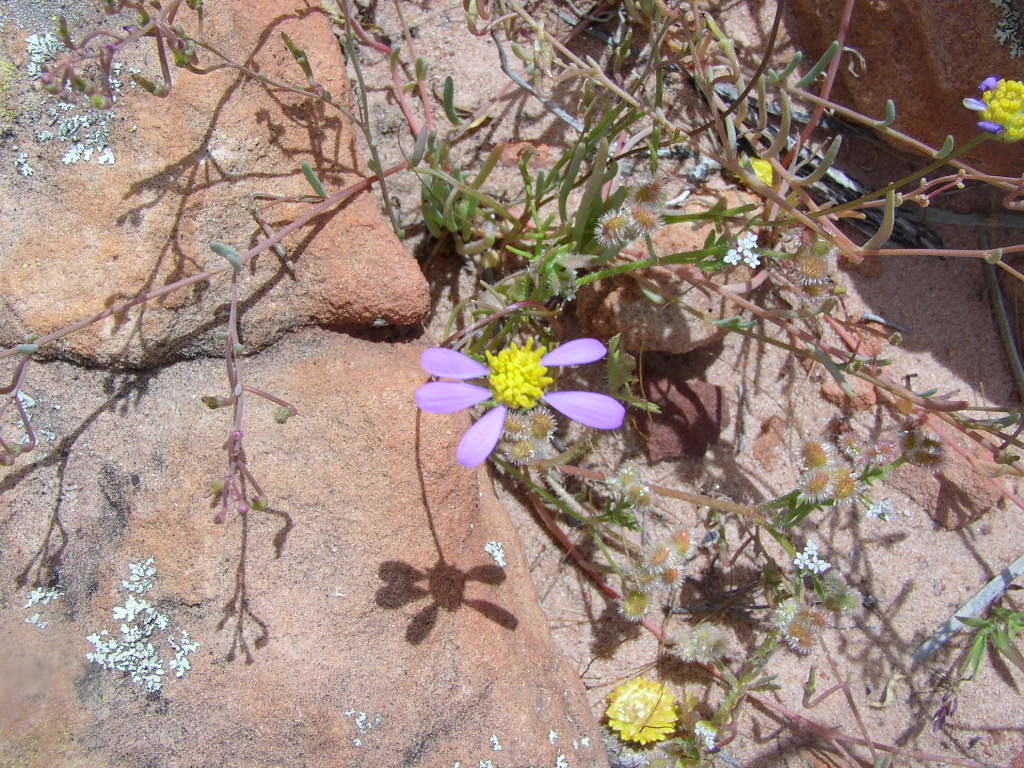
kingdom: Plantae
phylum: Tracheophyta
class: Magnoliopsida
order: Apiales
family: Araliaceae
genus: Trachymene
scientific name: Trachymene cyanopetala
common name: Purple trachymene
